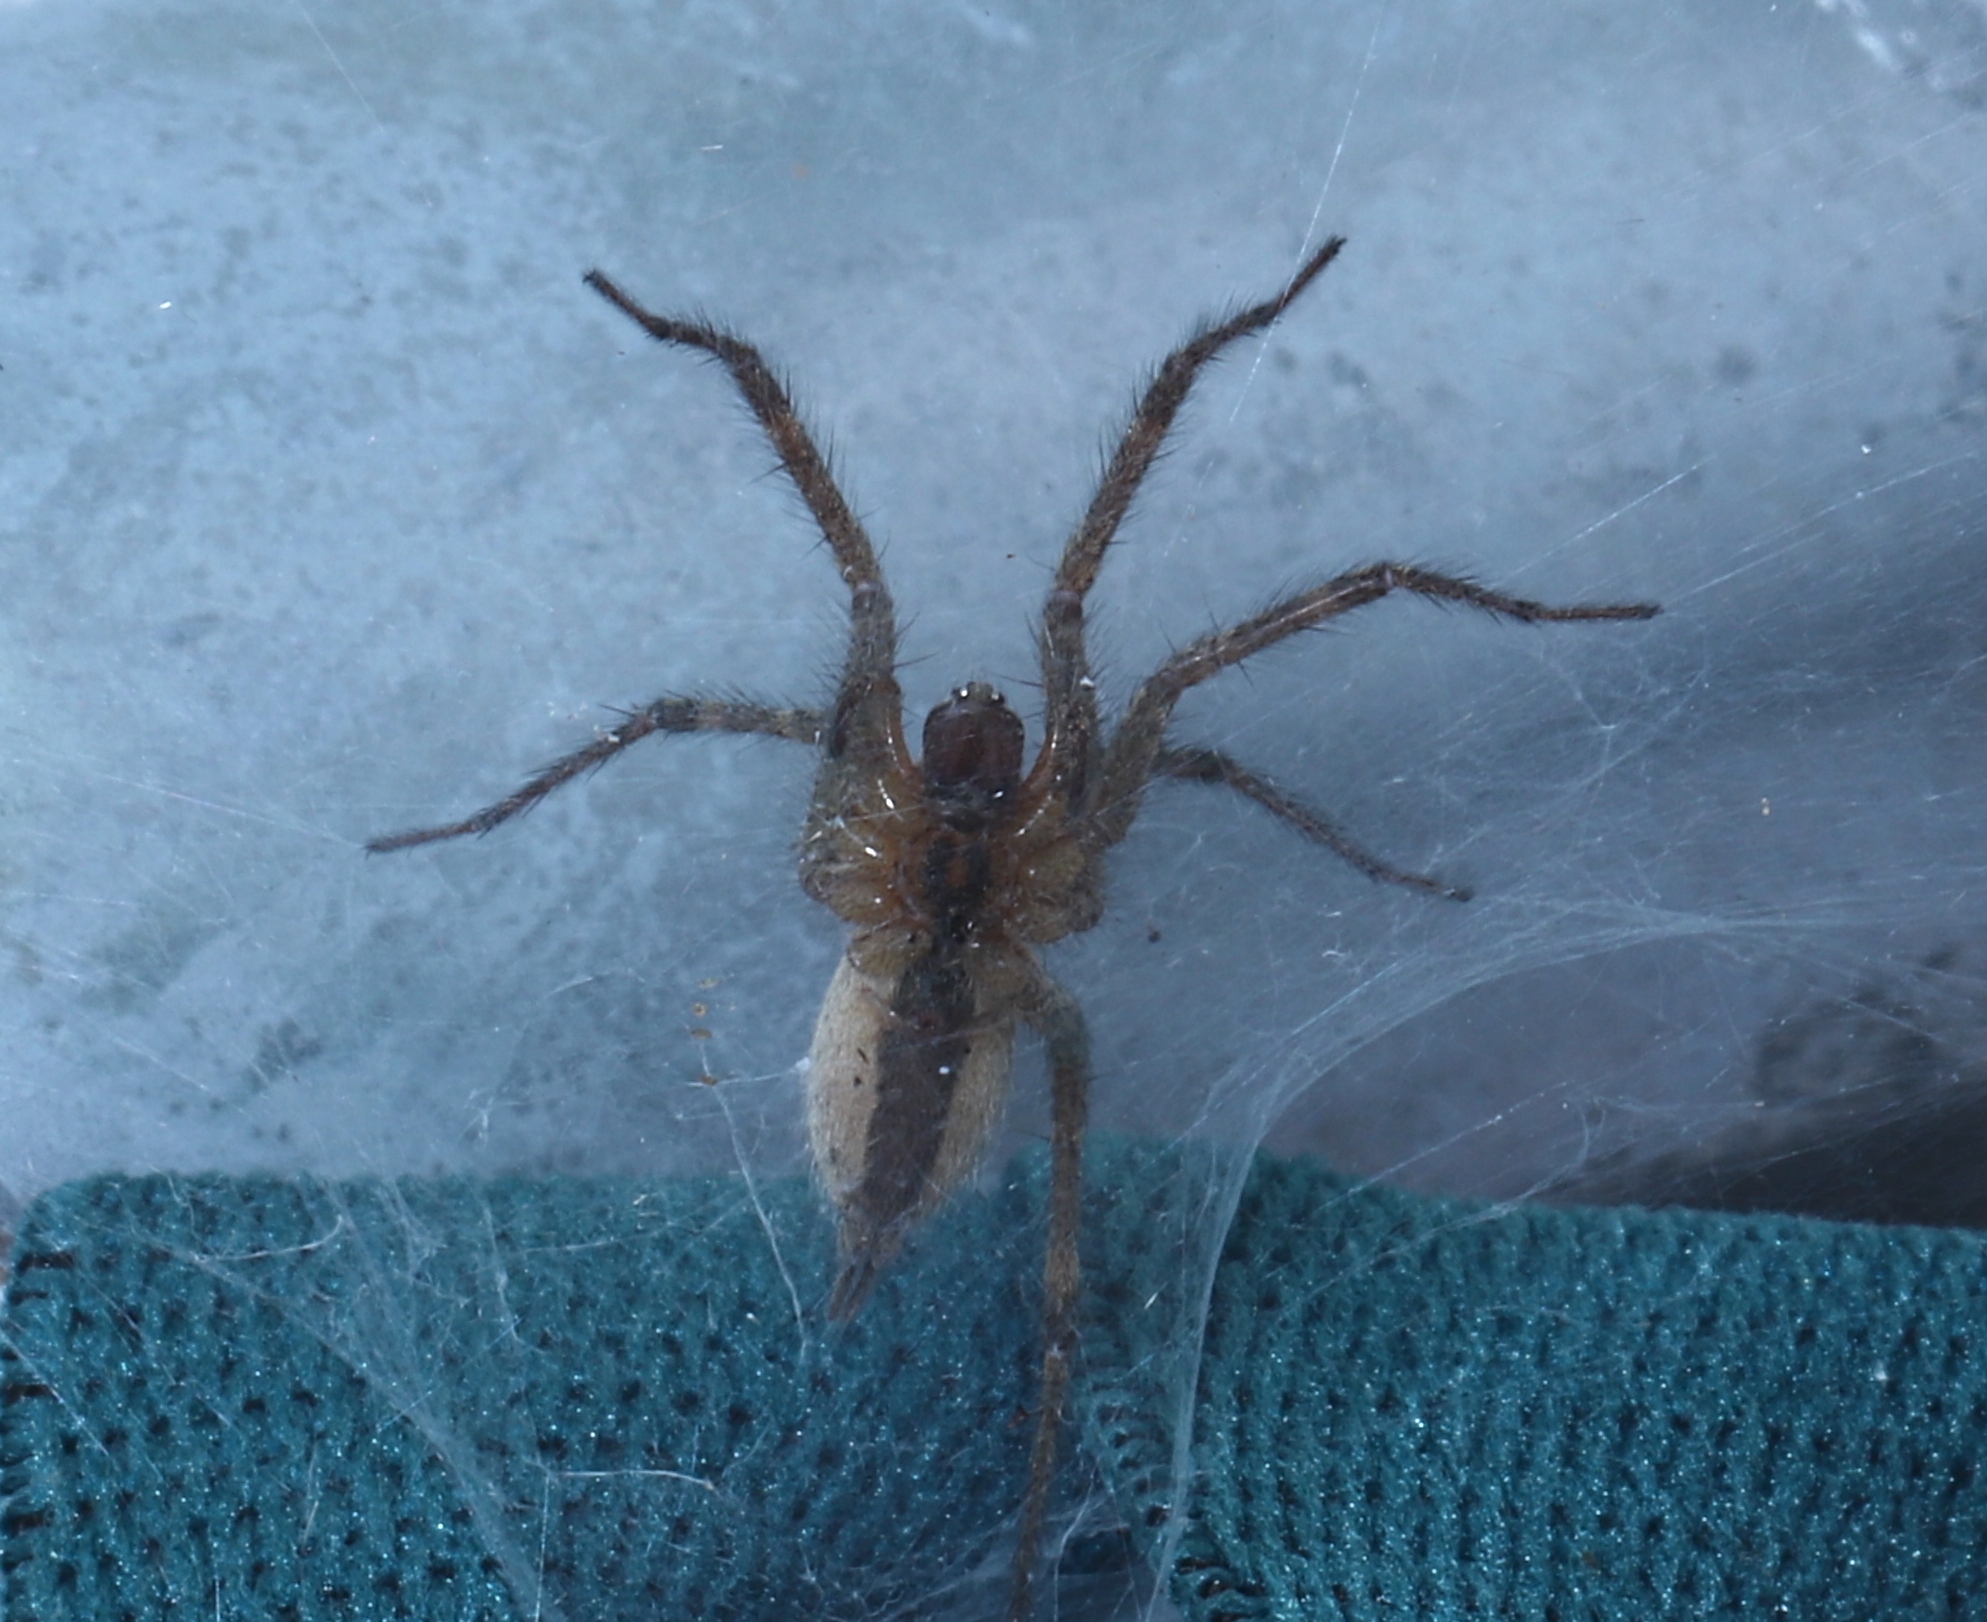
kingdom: Animalia
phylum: Arthropoda
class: Arachnida
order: Araneae
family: Agelenidae
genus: Agelenopsis
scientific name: Agelenopsis
